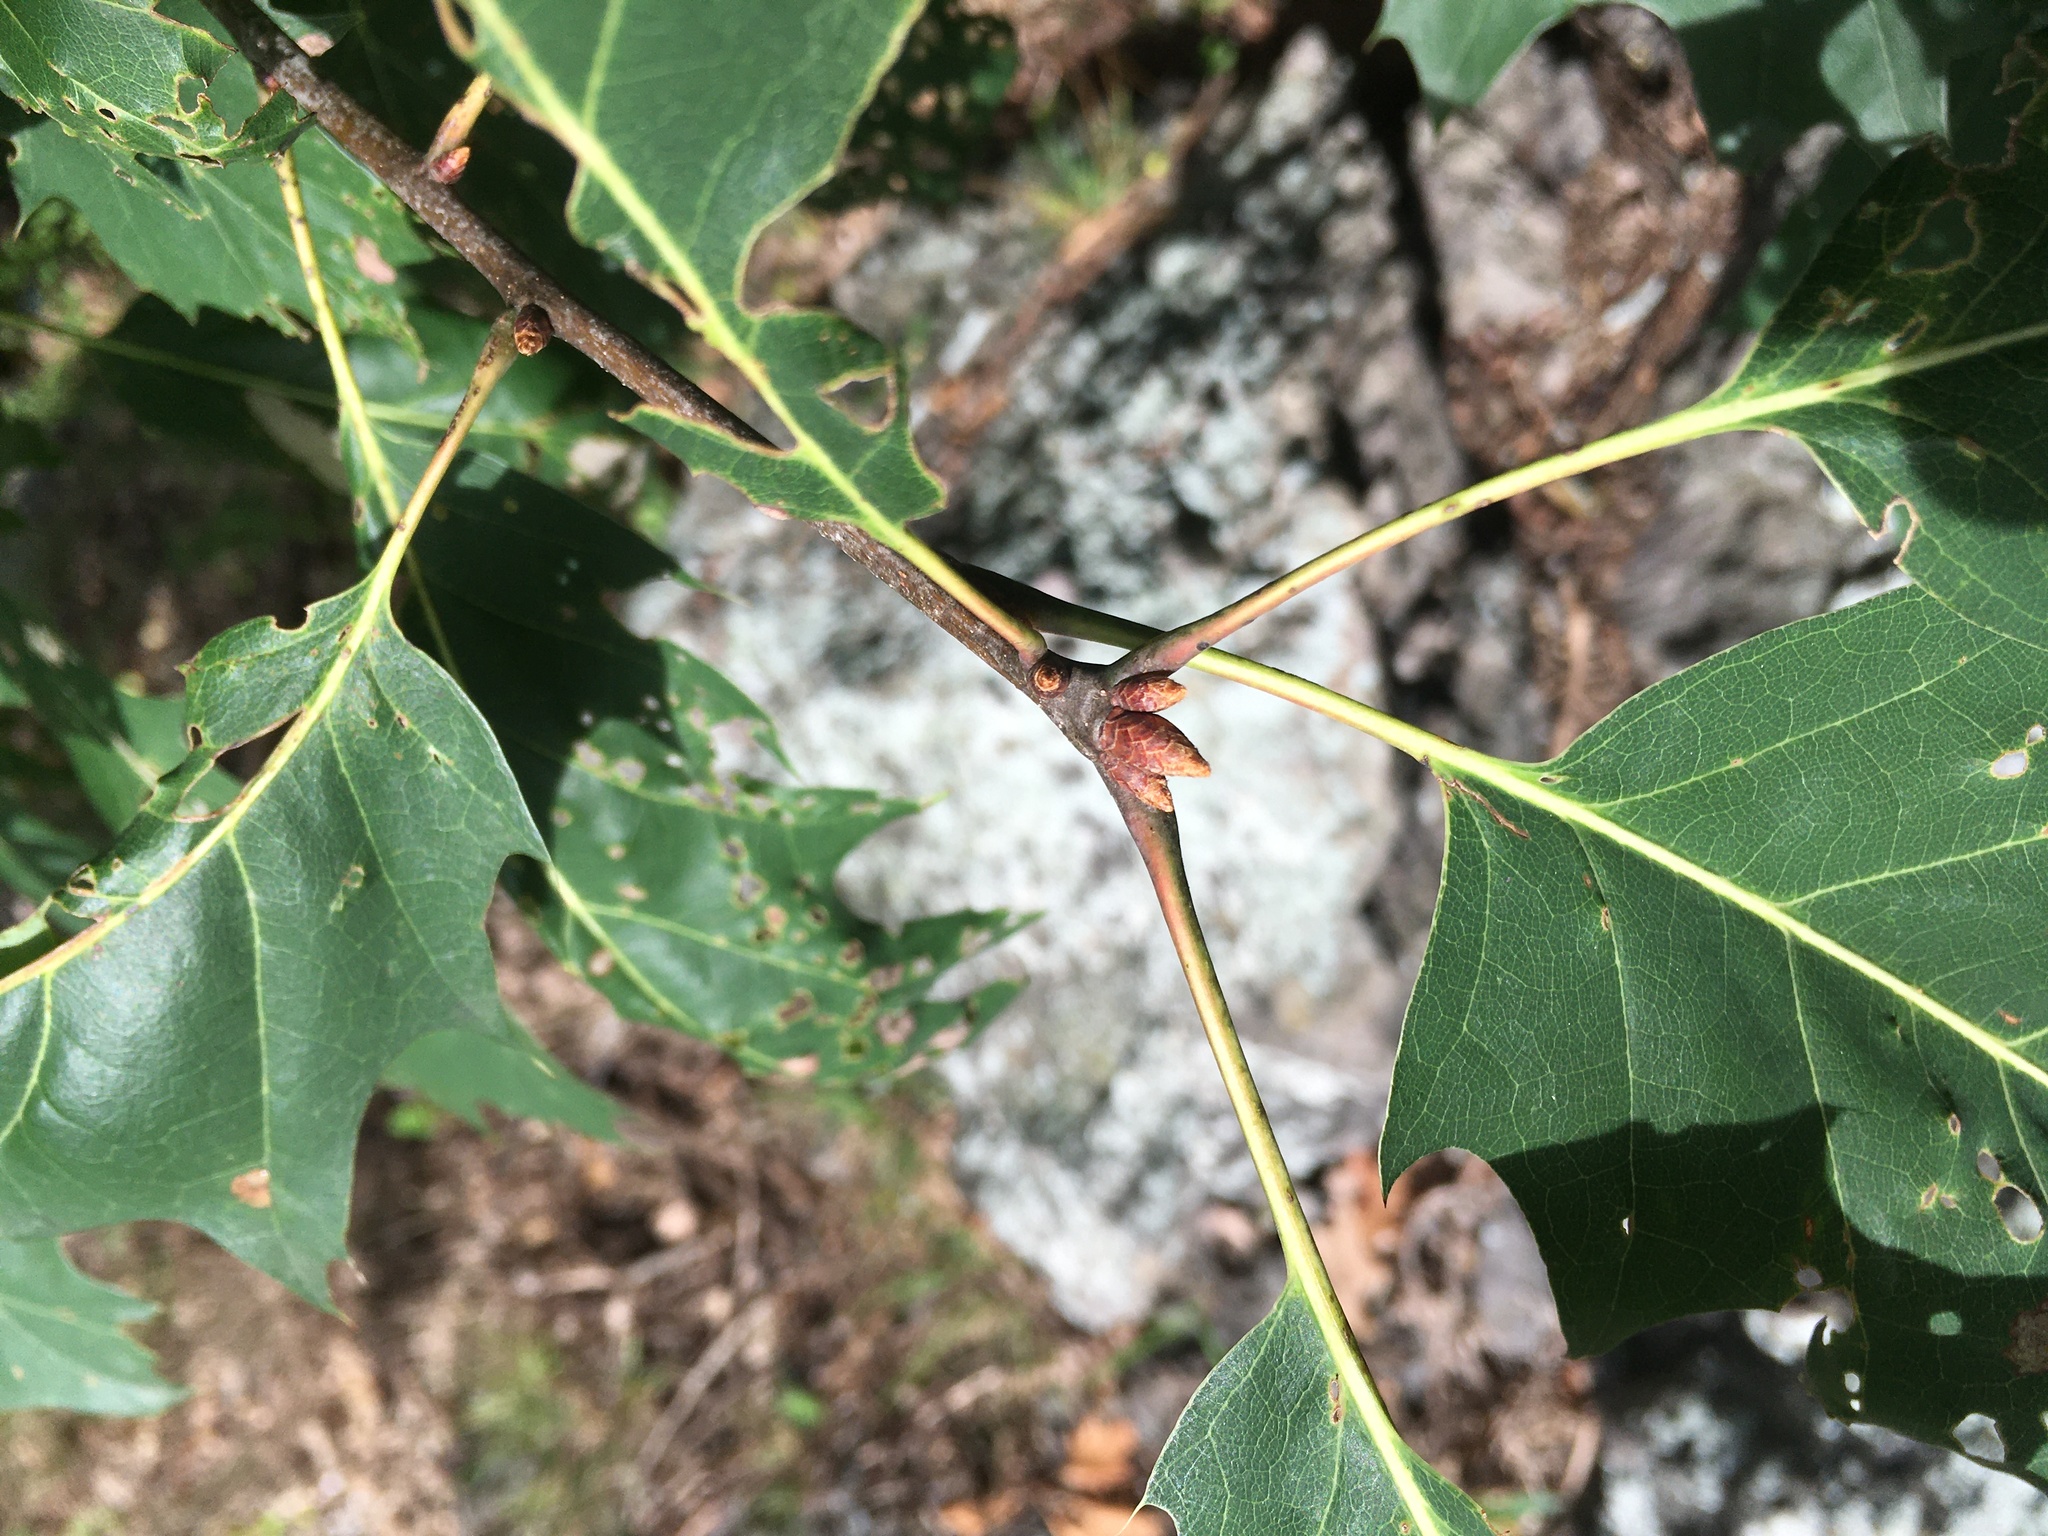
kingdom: Plantae
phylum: Tracheophyta
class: Magnoliopsida
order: Fagales
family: Fagaceae
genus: Quercus
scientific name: Quercus rubra
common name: Red oak
